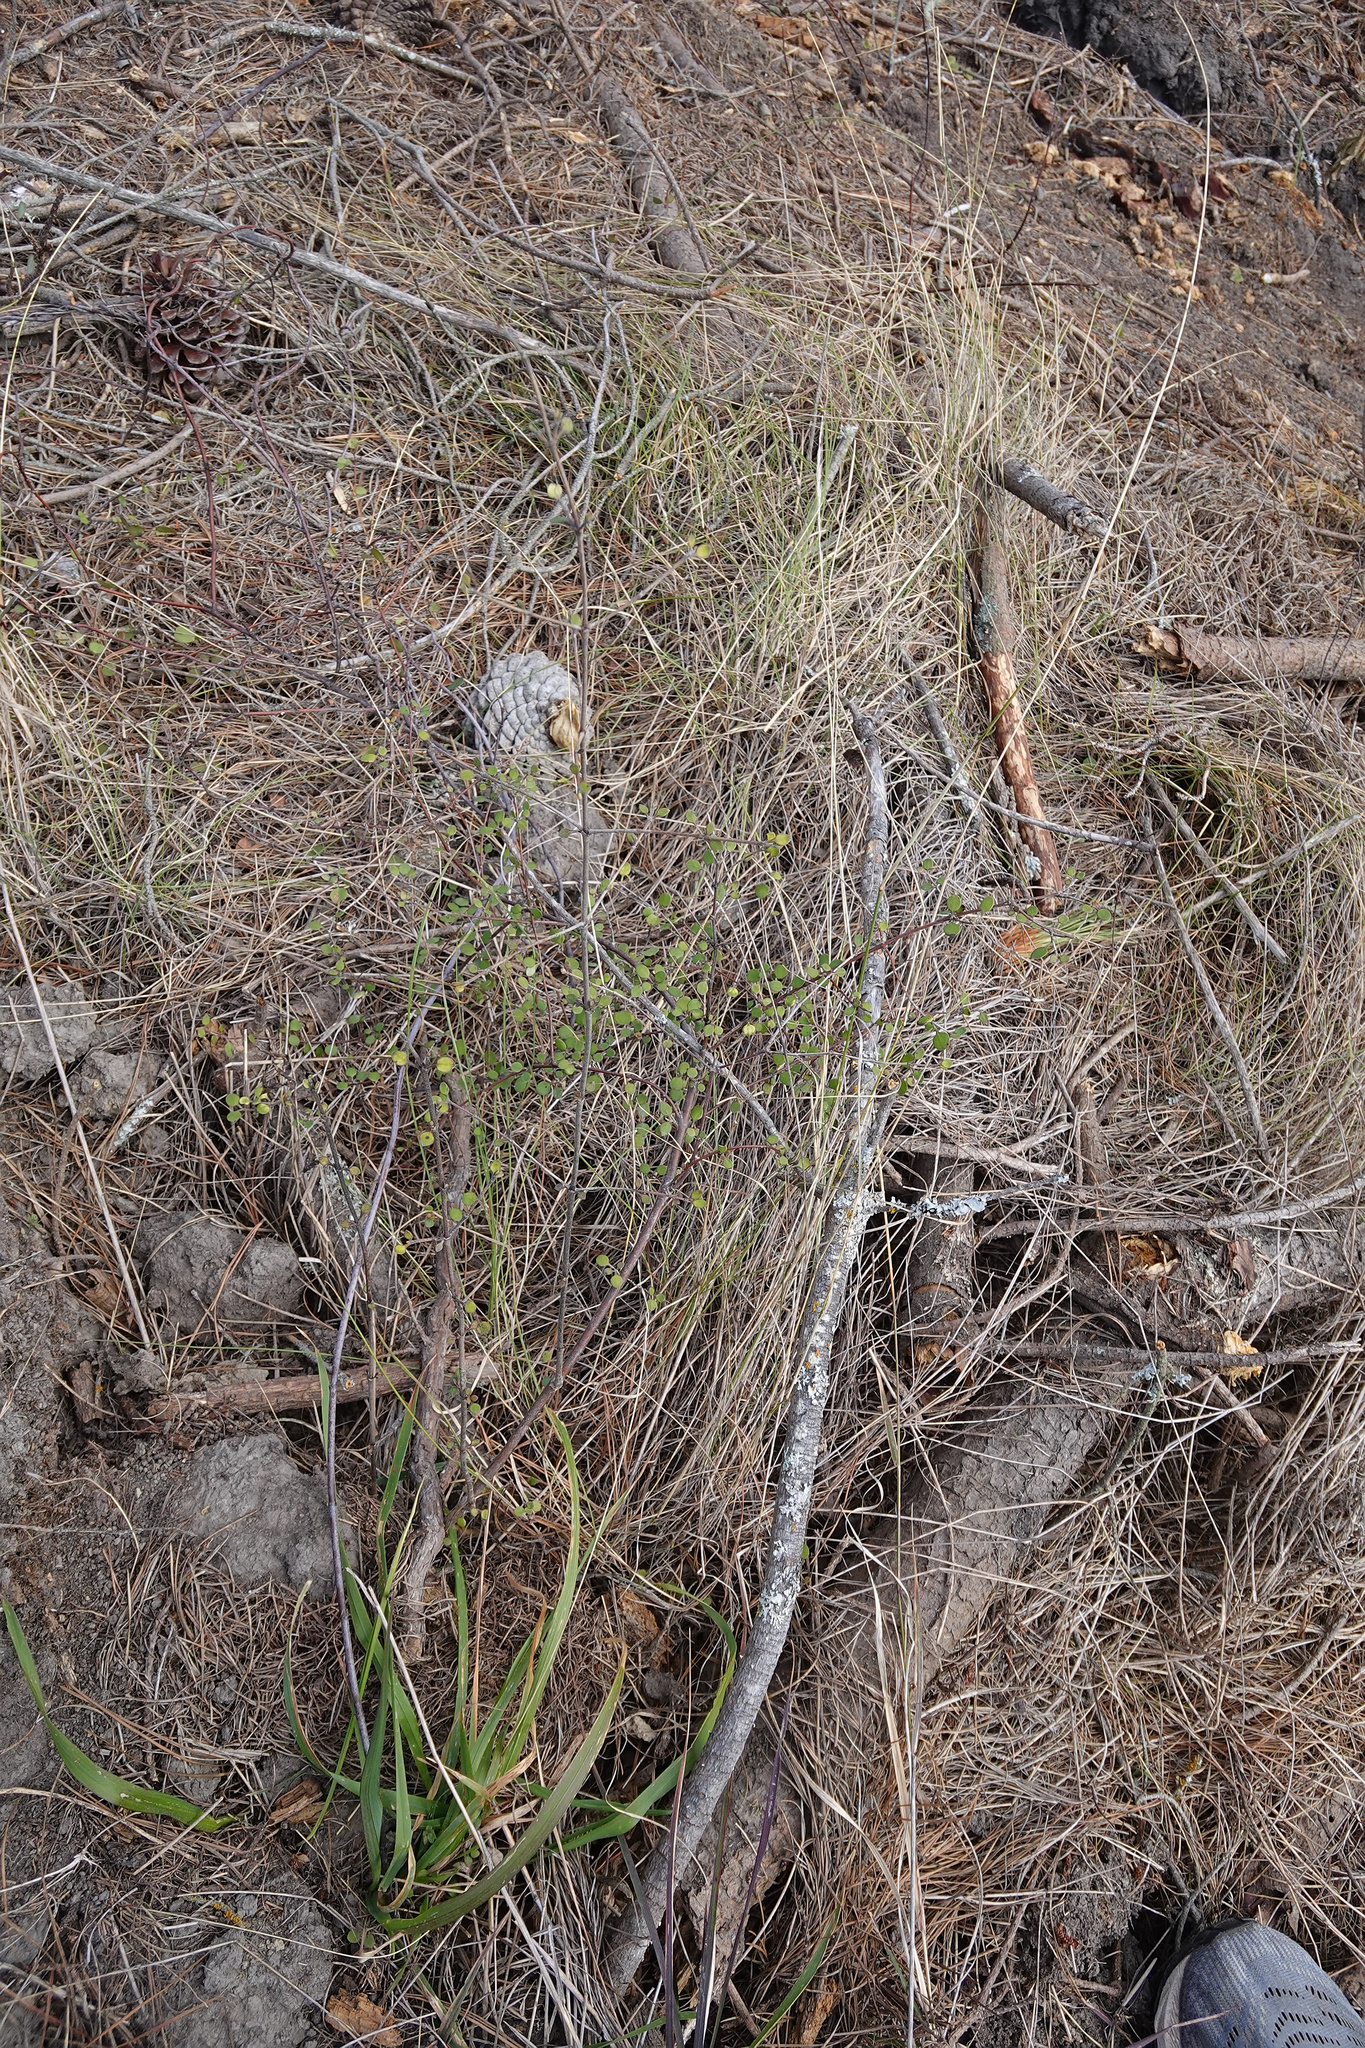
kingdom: Plantae
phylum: Tracheophyta
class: Magnoliopsida
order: Caryophyllales
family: Polygonaceae
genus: Muehlenbeckia
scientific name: Muehlenbeckia complexa
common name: Wireplant
